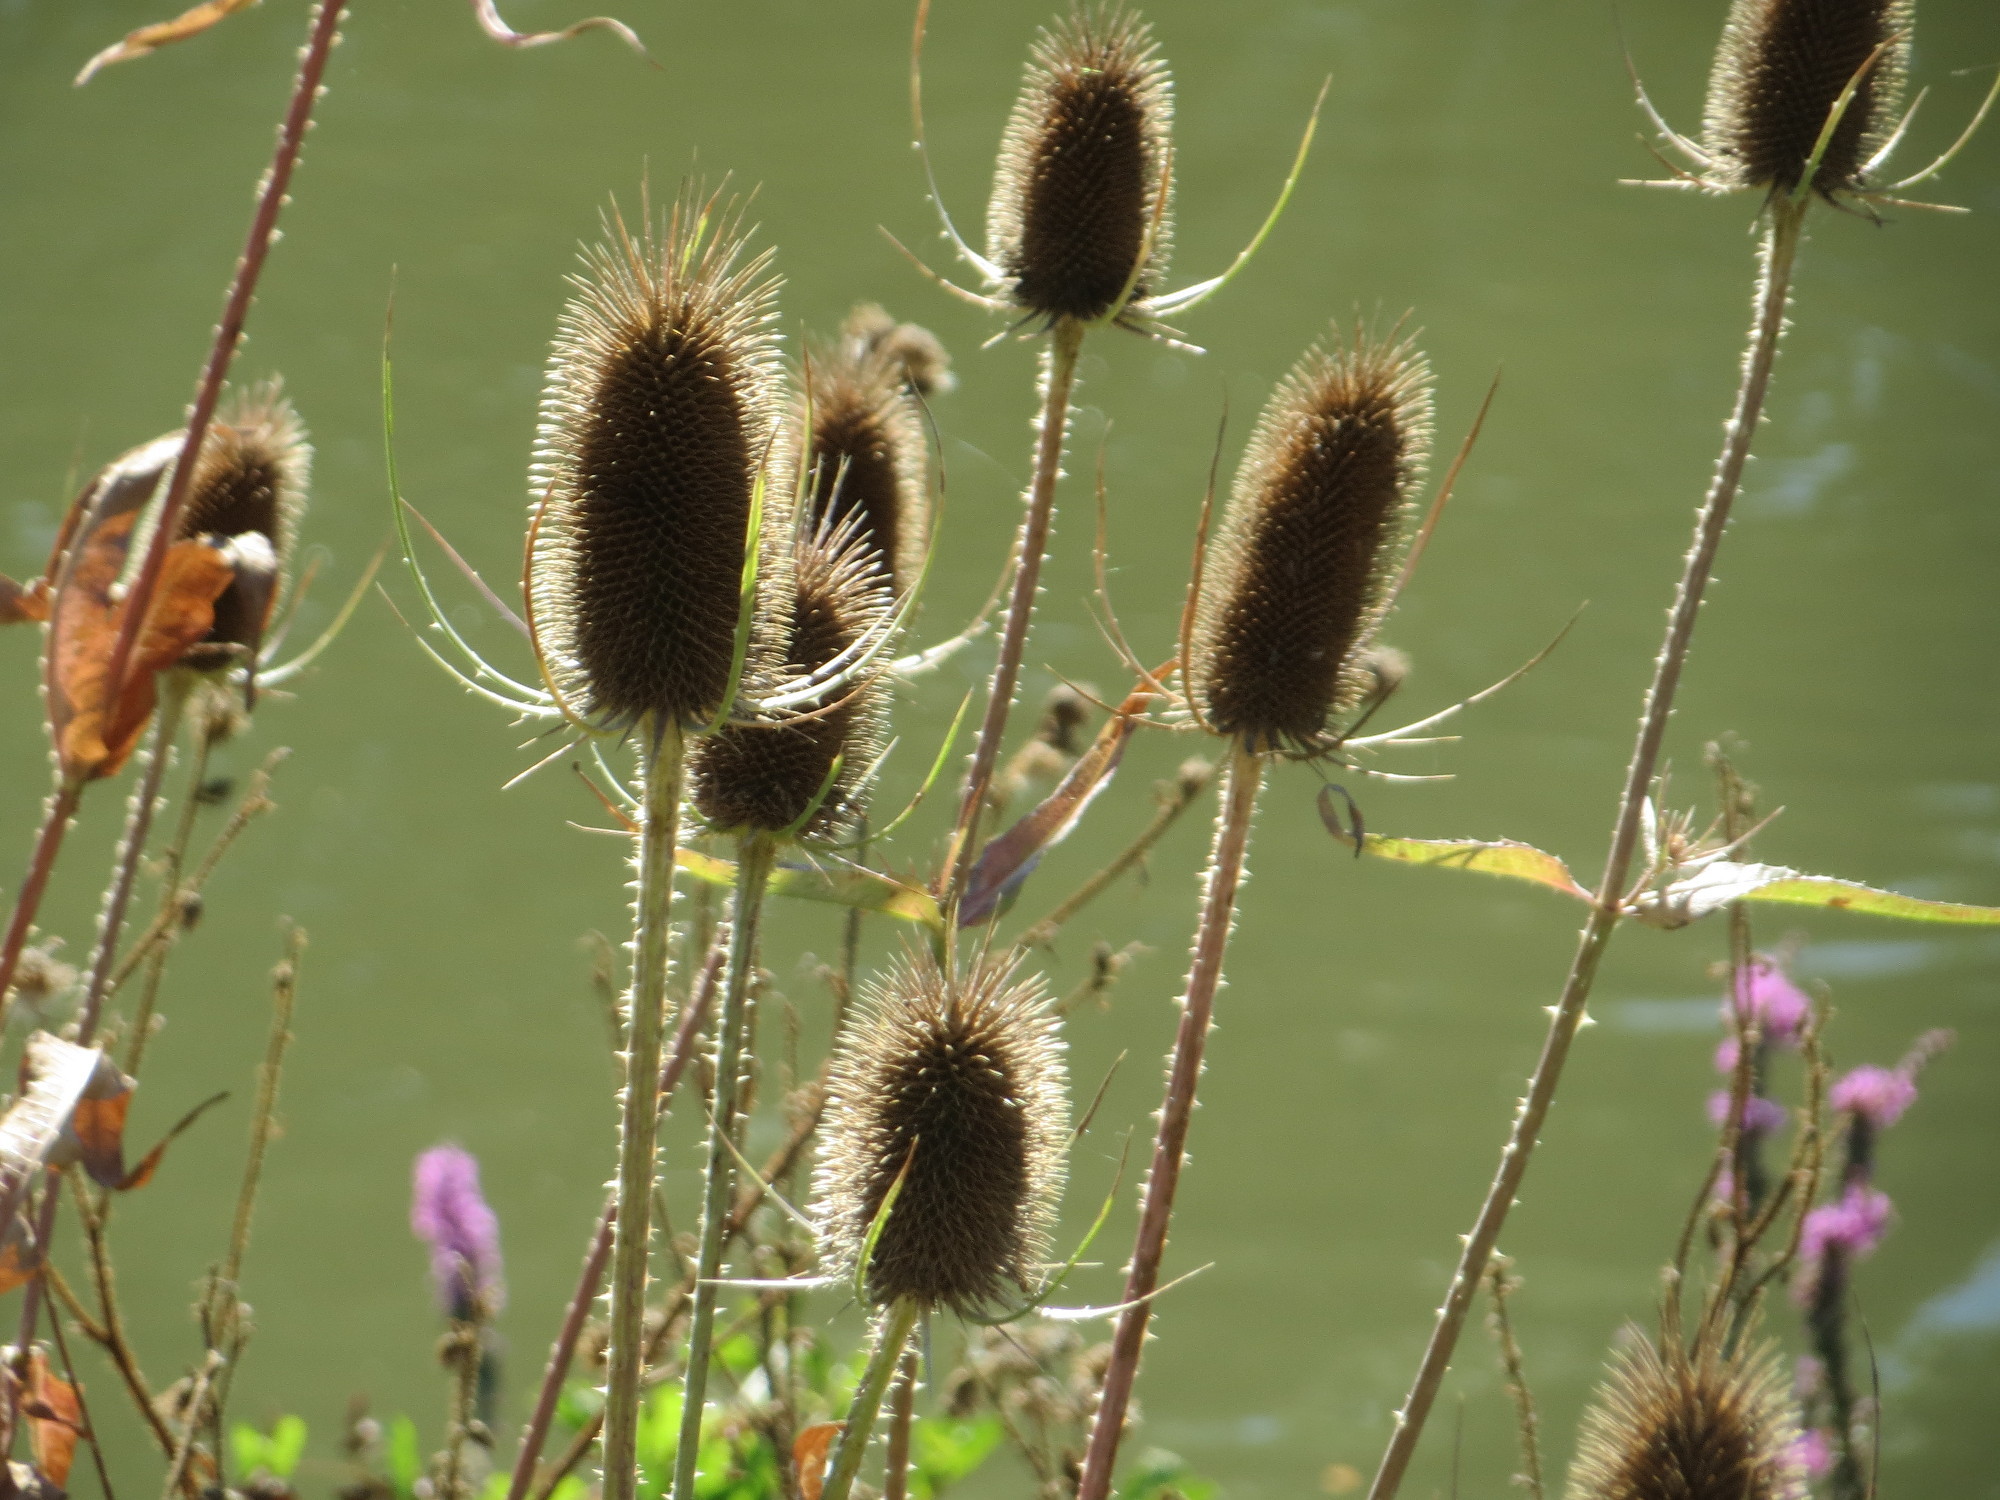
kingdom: Plantae
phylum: Tracheophyta
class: Magnoliopsida
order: Dipsacales
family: Caprifoliaceae
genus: Dipsacus
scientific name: Dipsacus fullonum
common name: Teasel
